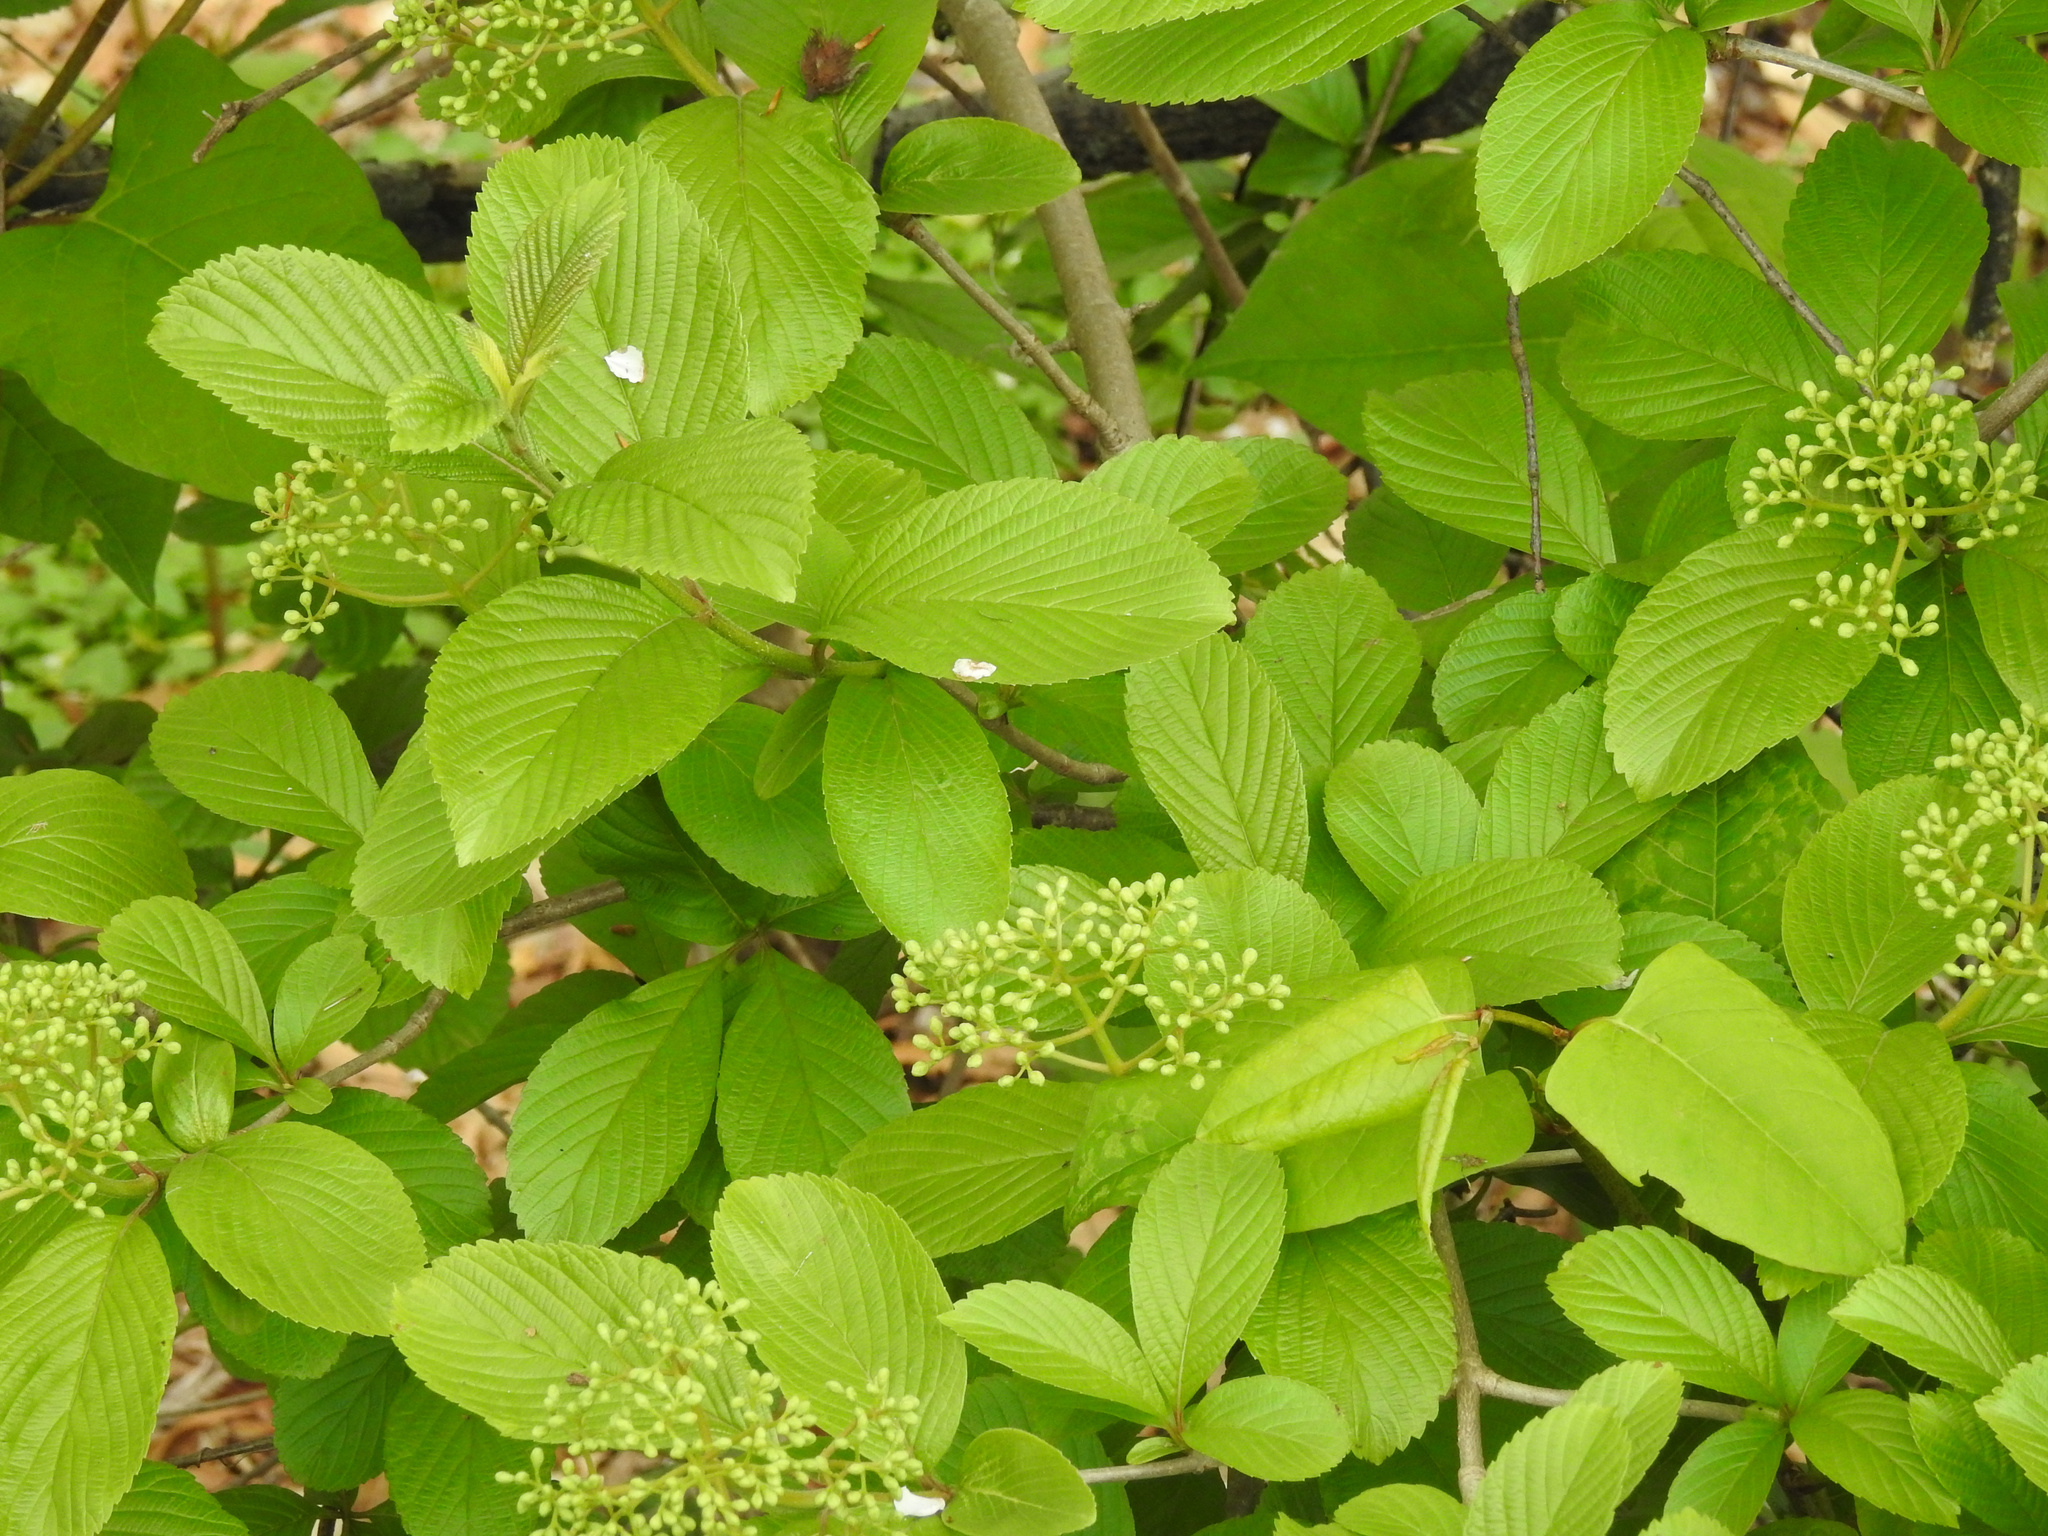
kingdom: Plantae
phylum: Tracheophyta
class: Magnoliopsida
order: Dipsacales
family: Viburnaceae
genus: Viburnum
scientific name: Viburnum sieboldii
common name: Siebold's arrowwood
